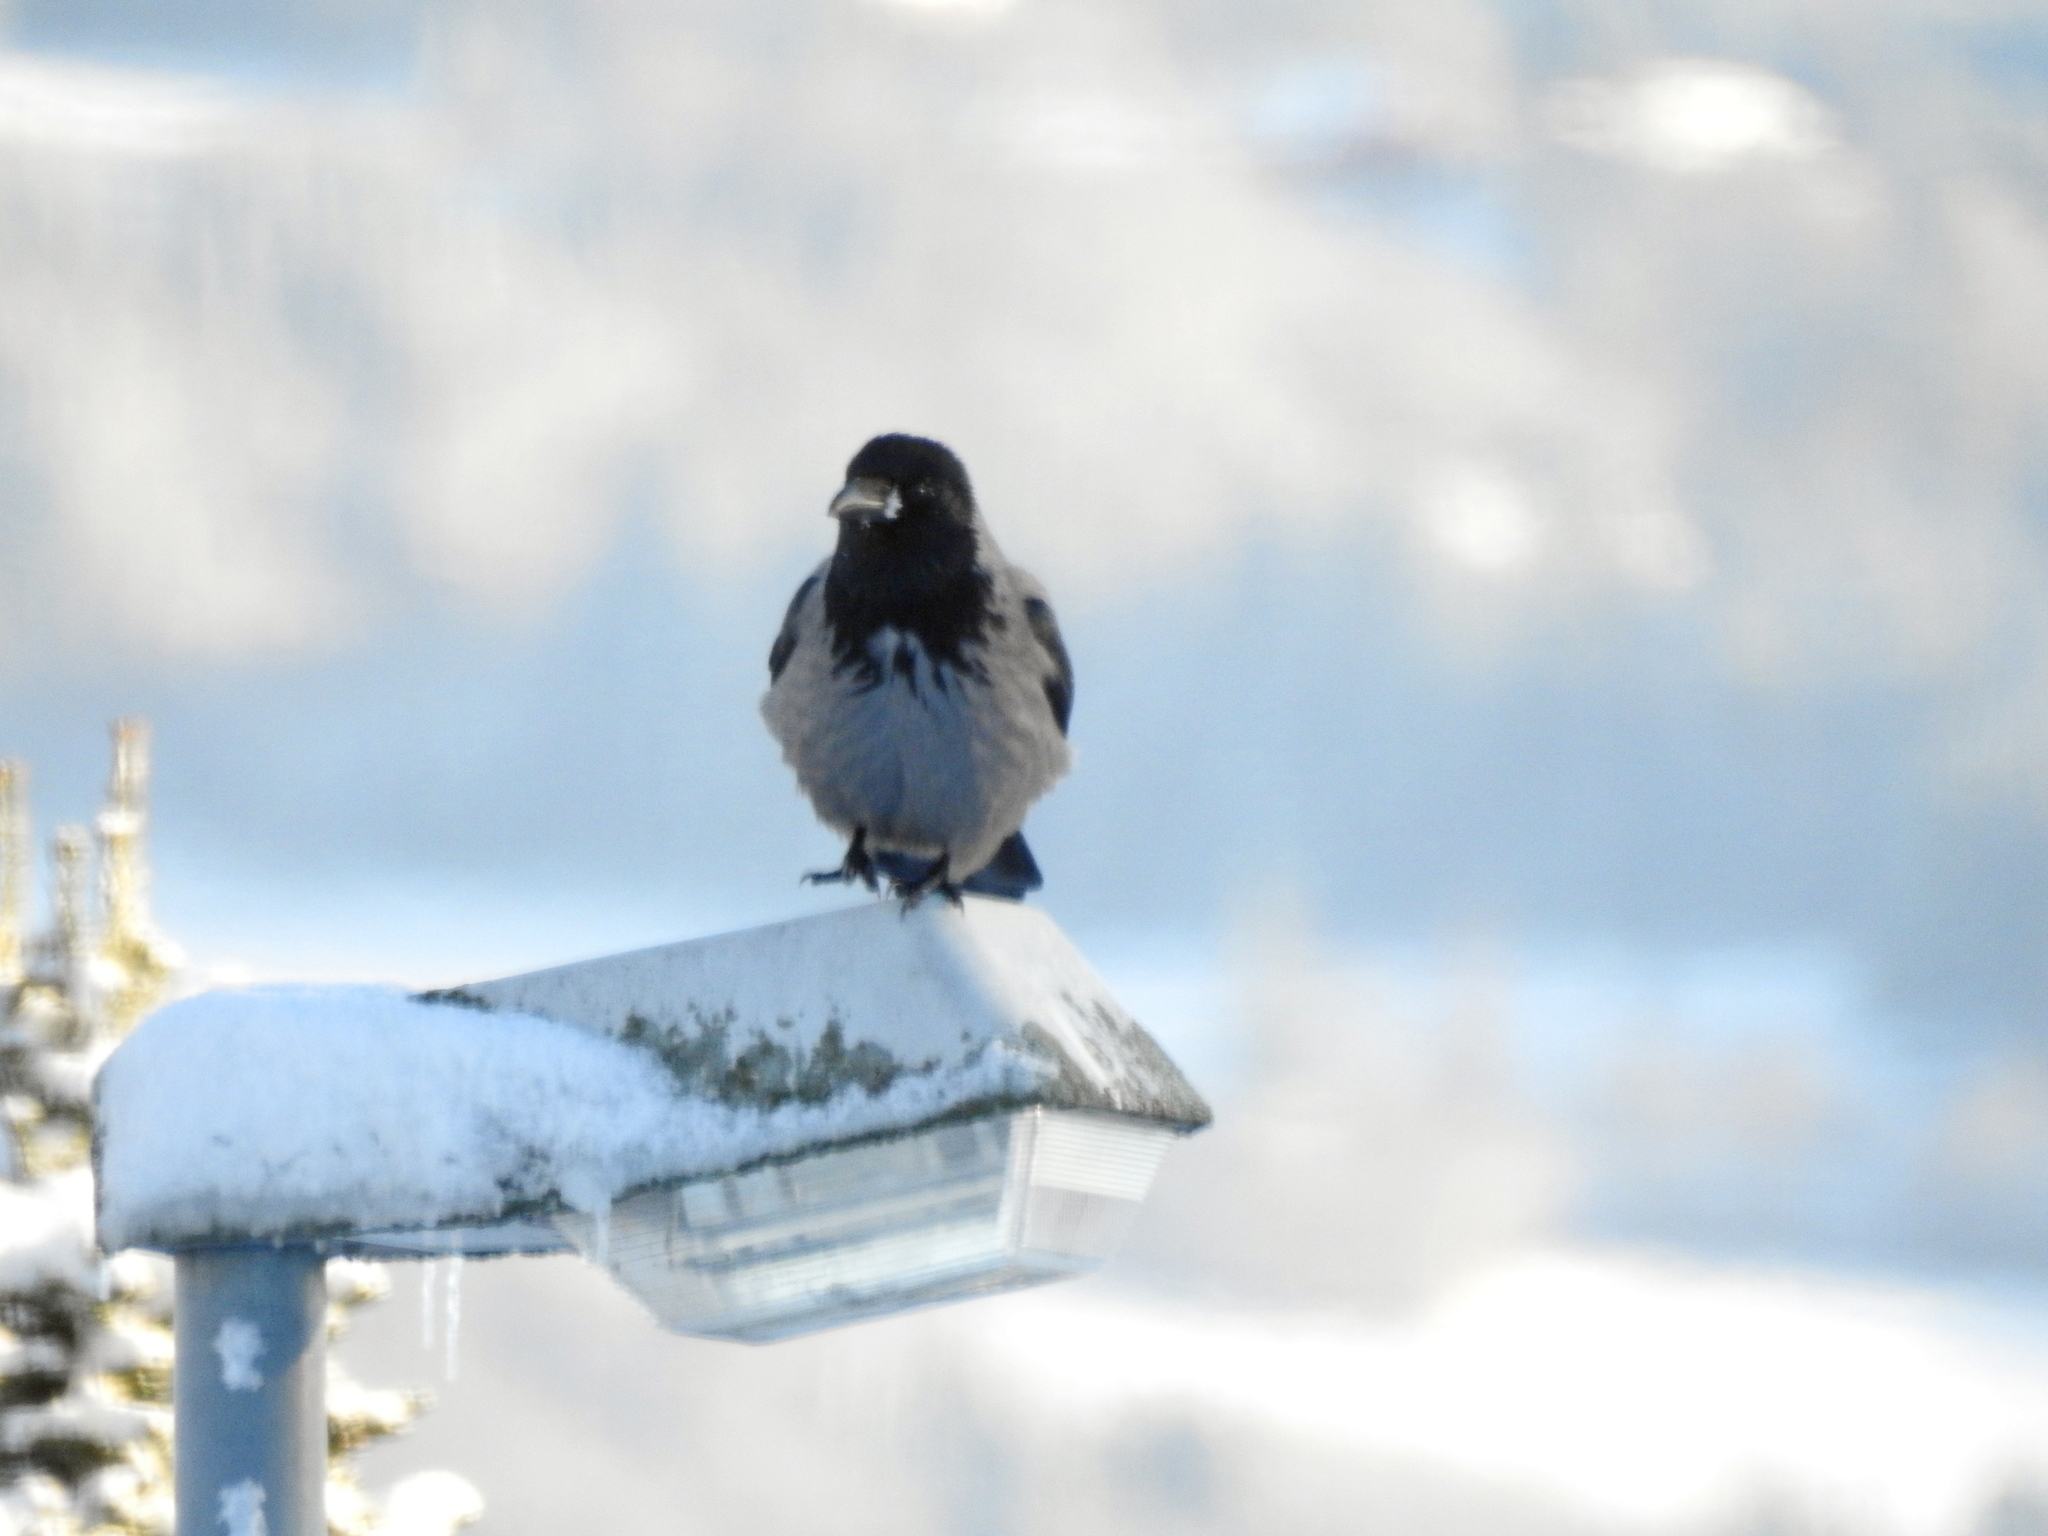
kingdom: Animalia
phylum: Chordata
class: Aves
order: Passeriformes
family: Corvidae
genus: Corvus
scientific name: Corvus cornix
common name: Hooded crow
